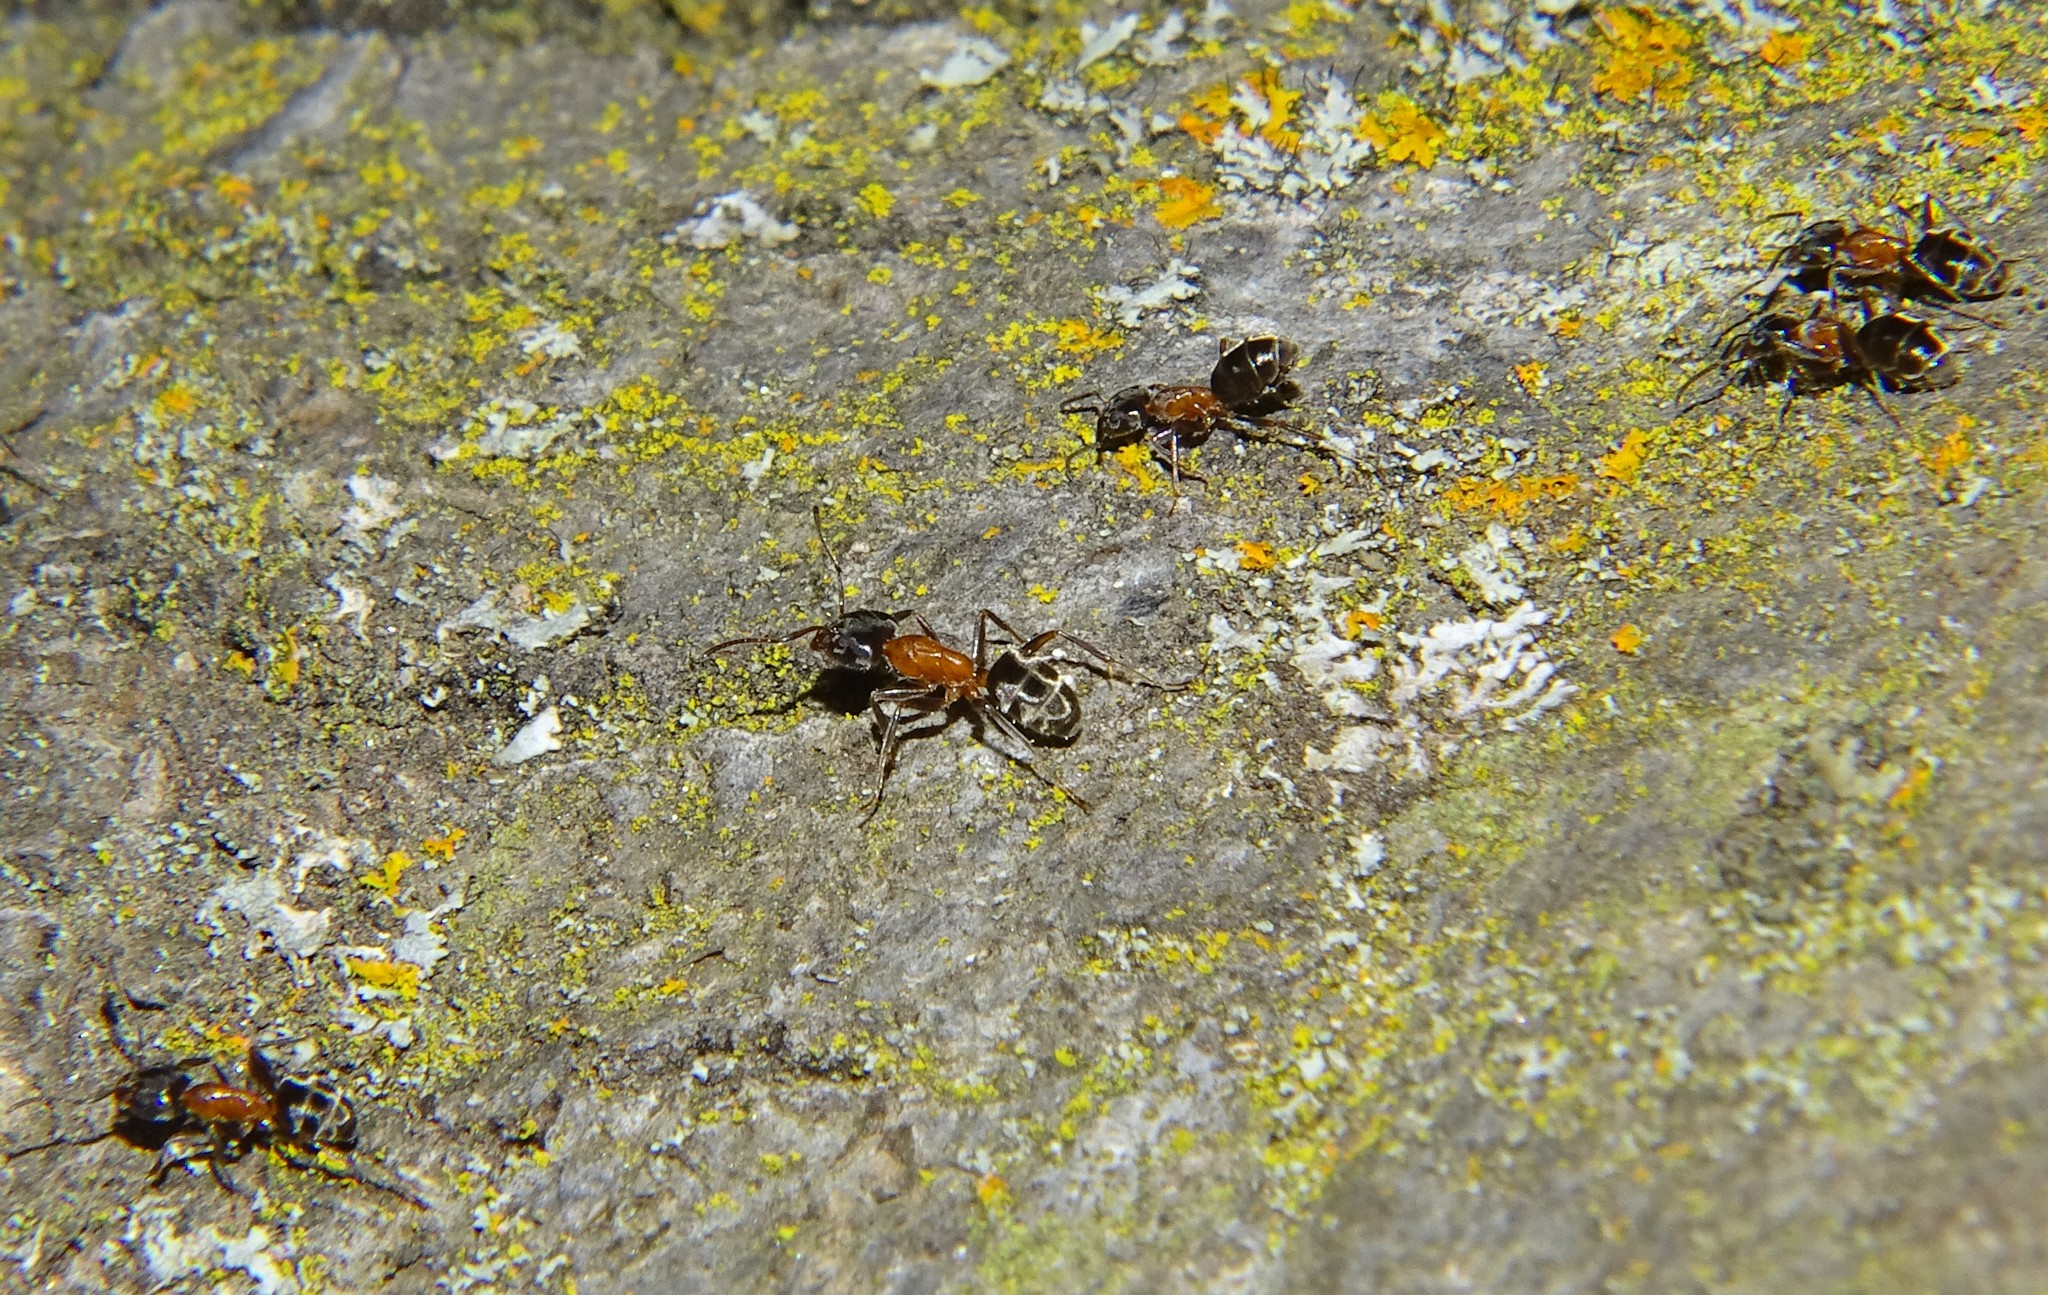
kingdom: Animalia
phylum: Arthropoda
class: Insecta
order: Hymenoptera
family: Formicidae
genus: Liometopum
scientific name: Liometopum occidentale
